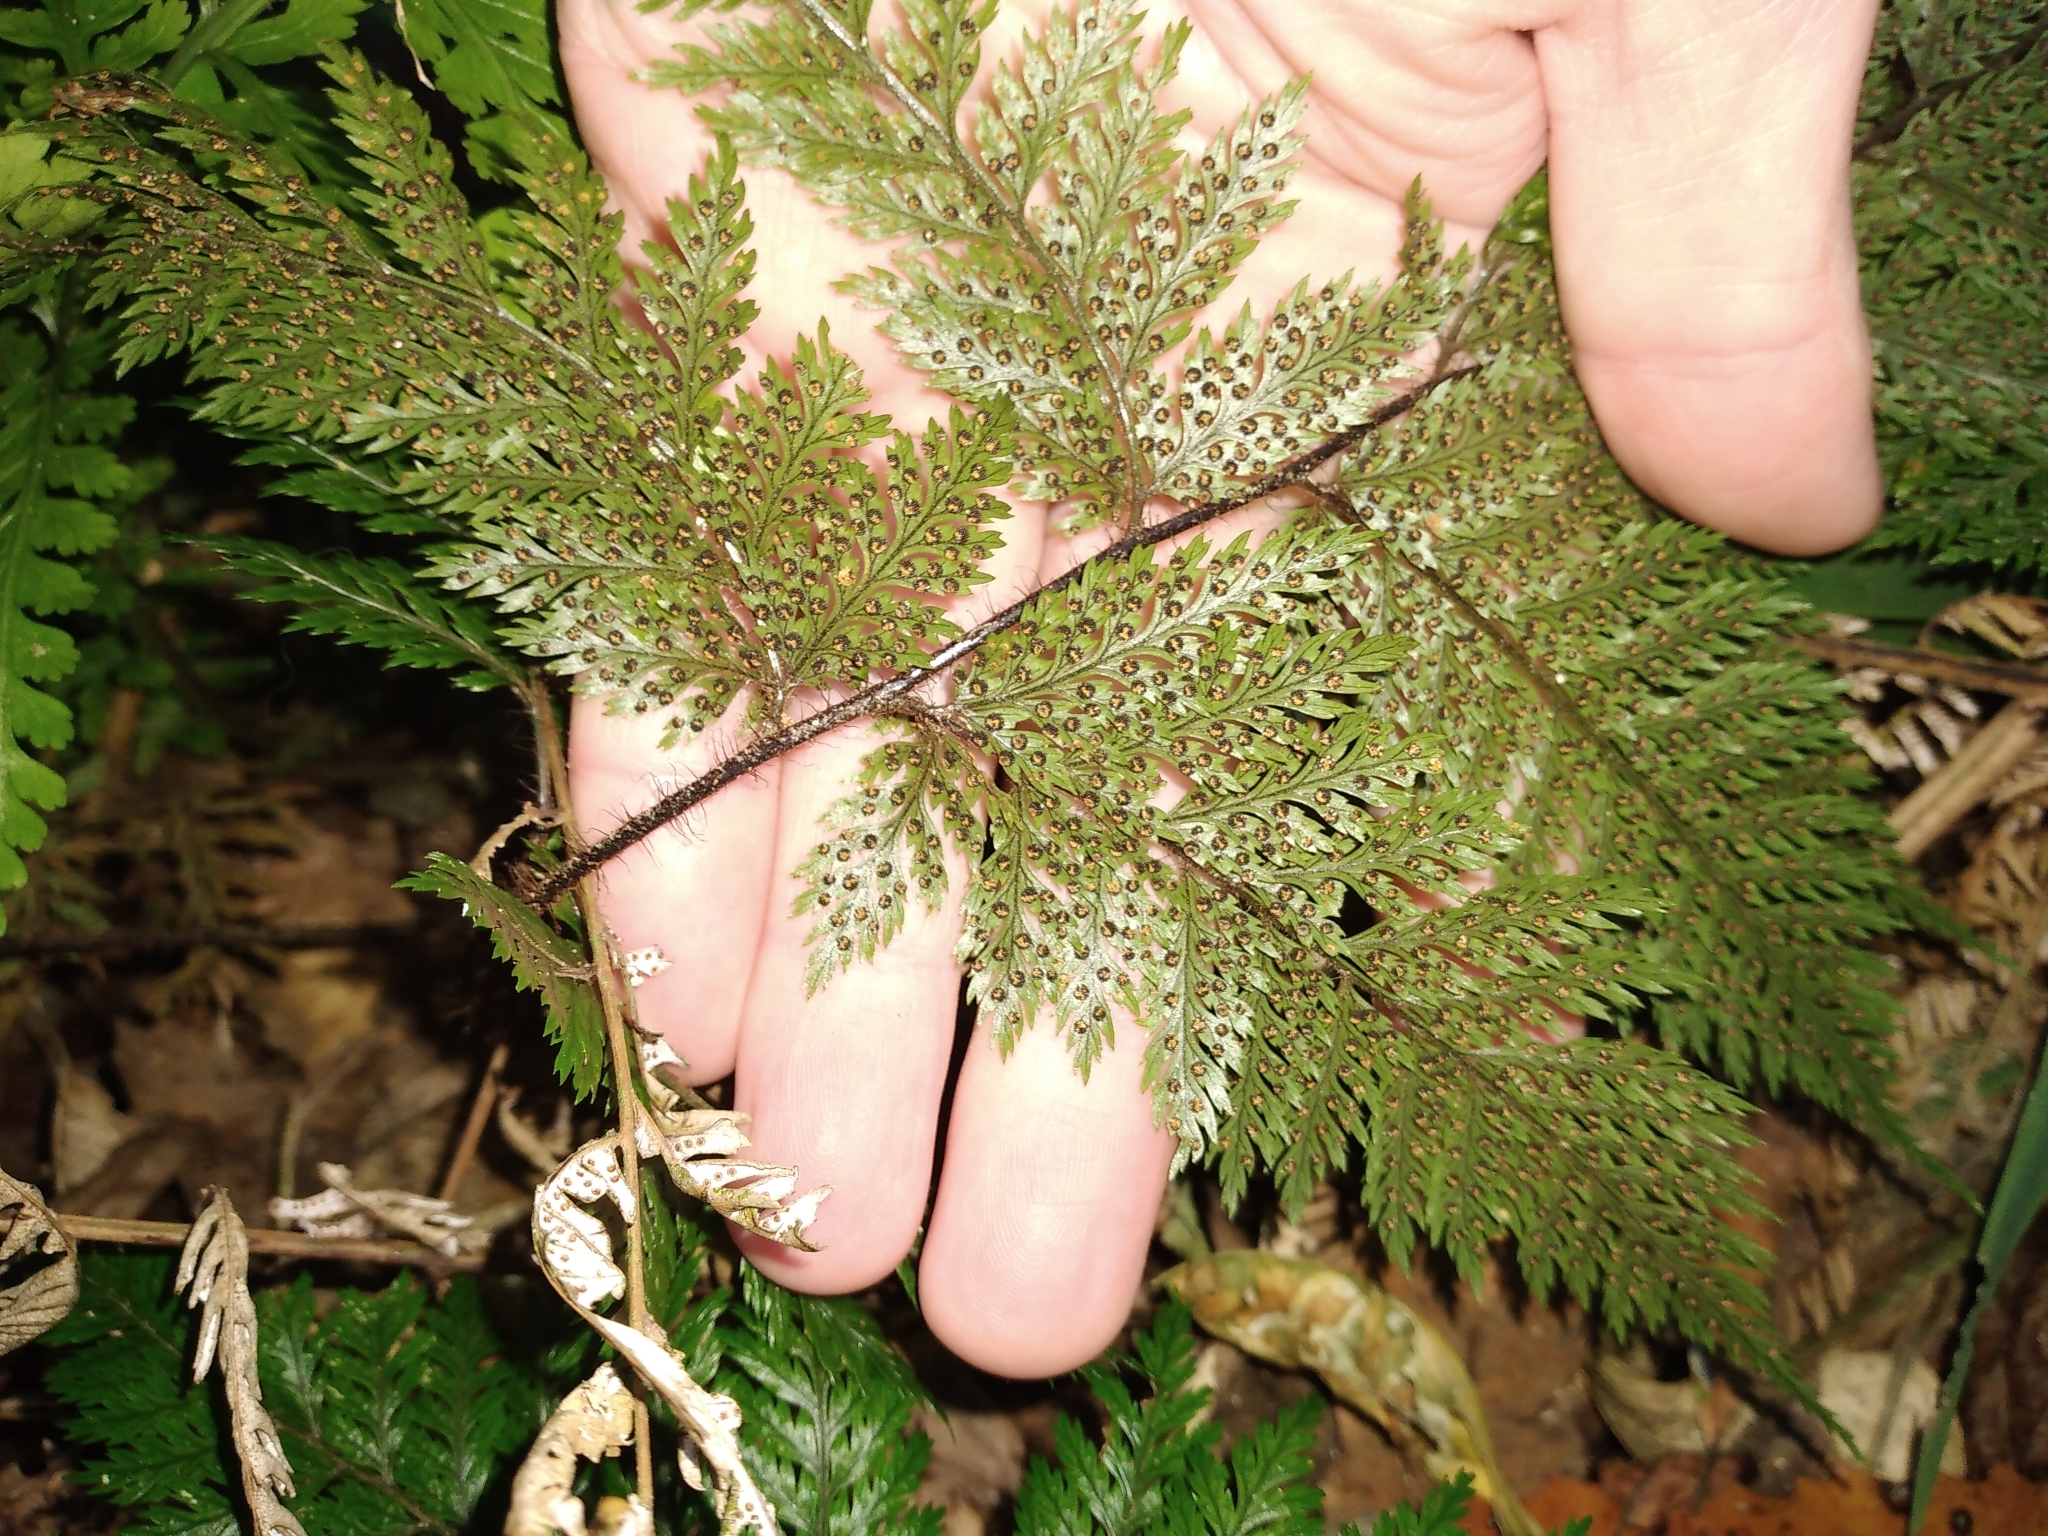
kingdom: Plantae
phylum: Tracheophyta
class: Polypodiopsida
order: Polypodiales
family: Dryopteridaceae
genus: Lastreopsis
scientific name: Lastreopsis hispida
